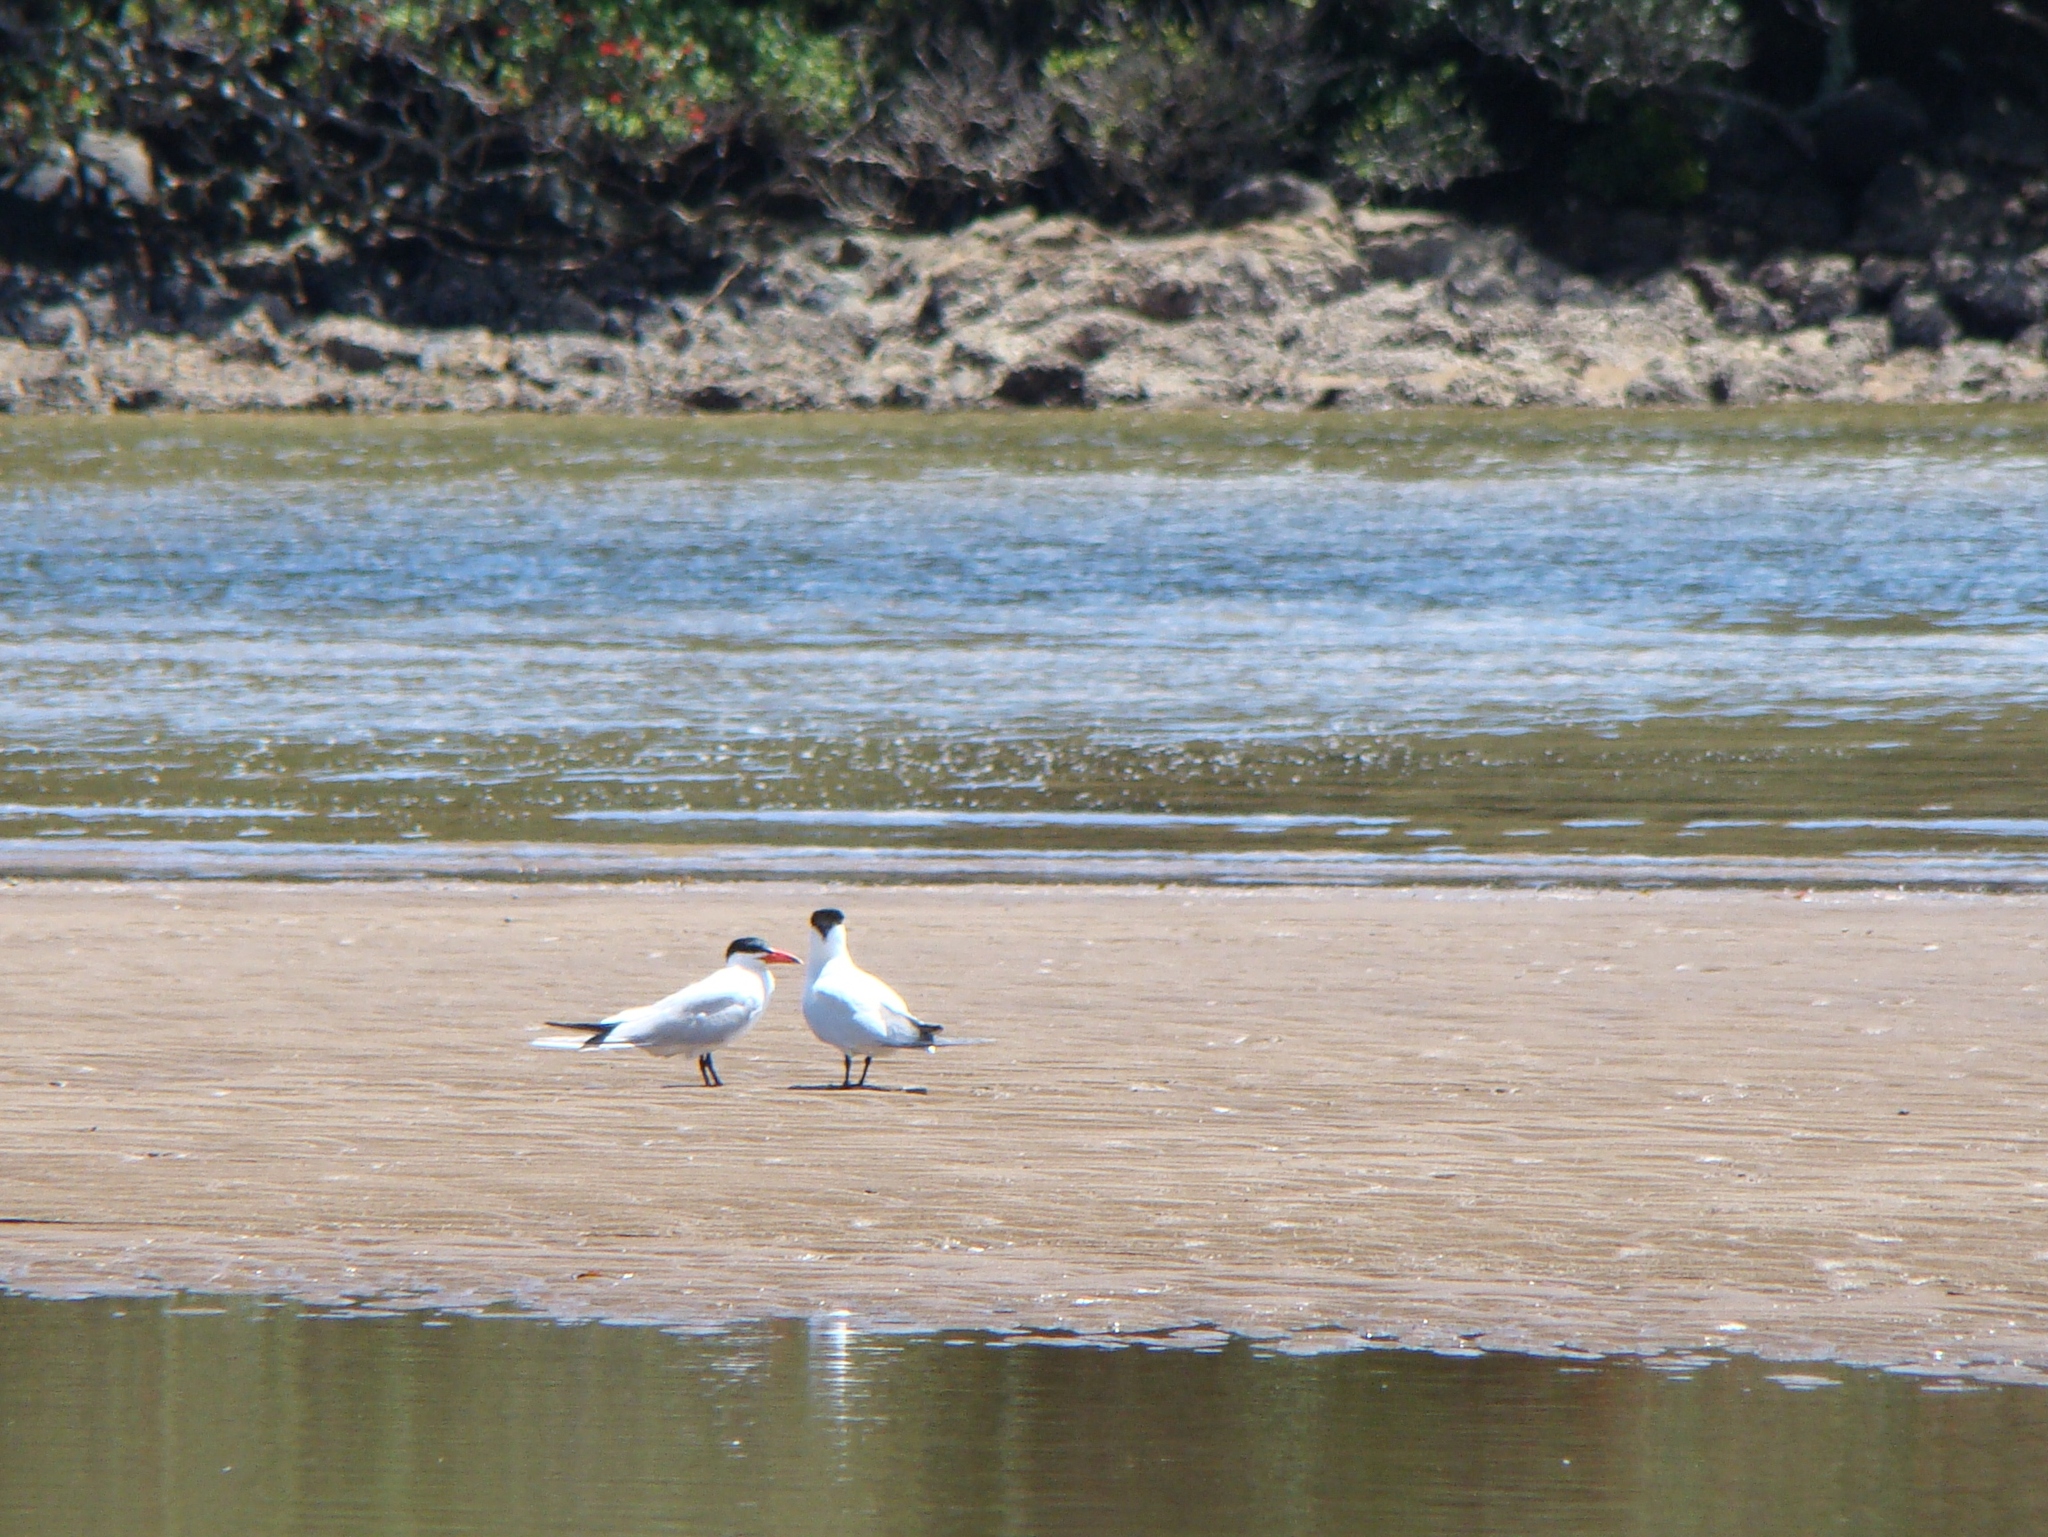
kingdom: Animalia
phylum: Chordata
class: Aves
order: Charadriiformes
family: Laridae
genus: Hydroprogne
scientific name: Hydroprogne caspia
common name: Caspian tern
